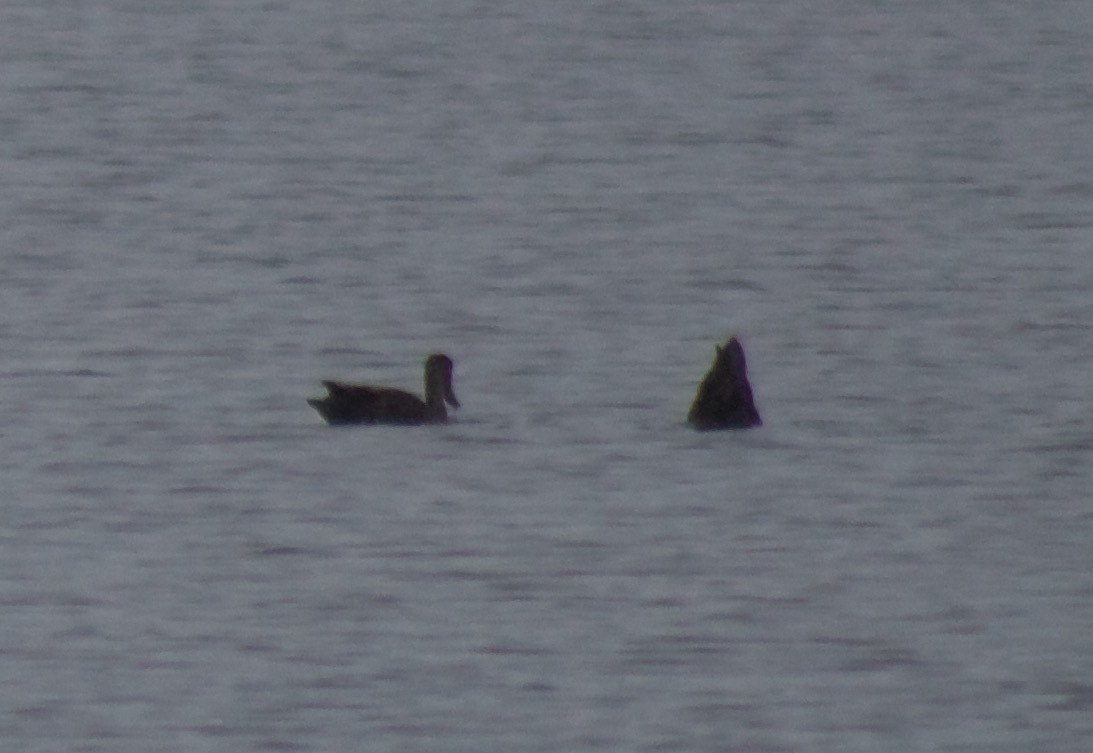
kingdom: Animalia
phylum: Chordata
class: Aves
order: Anseriformes
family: Anatidae
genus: Anas
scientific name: Anas rubripes
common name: American black duck
